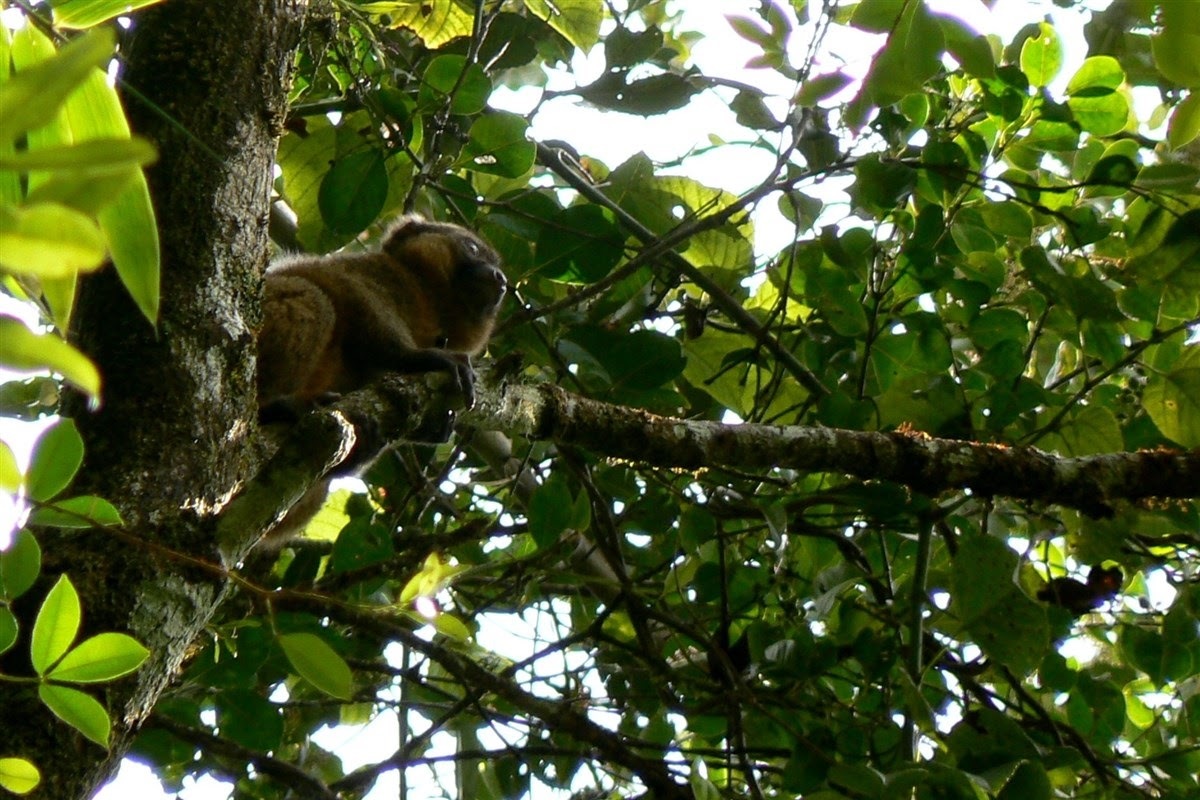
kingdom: Animalia
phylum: Chordata
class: Mammalia
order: Primates
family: Lemuridae
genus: Hapalemur
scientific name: Hapalemur aureus
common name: Golden bamboo lemur
